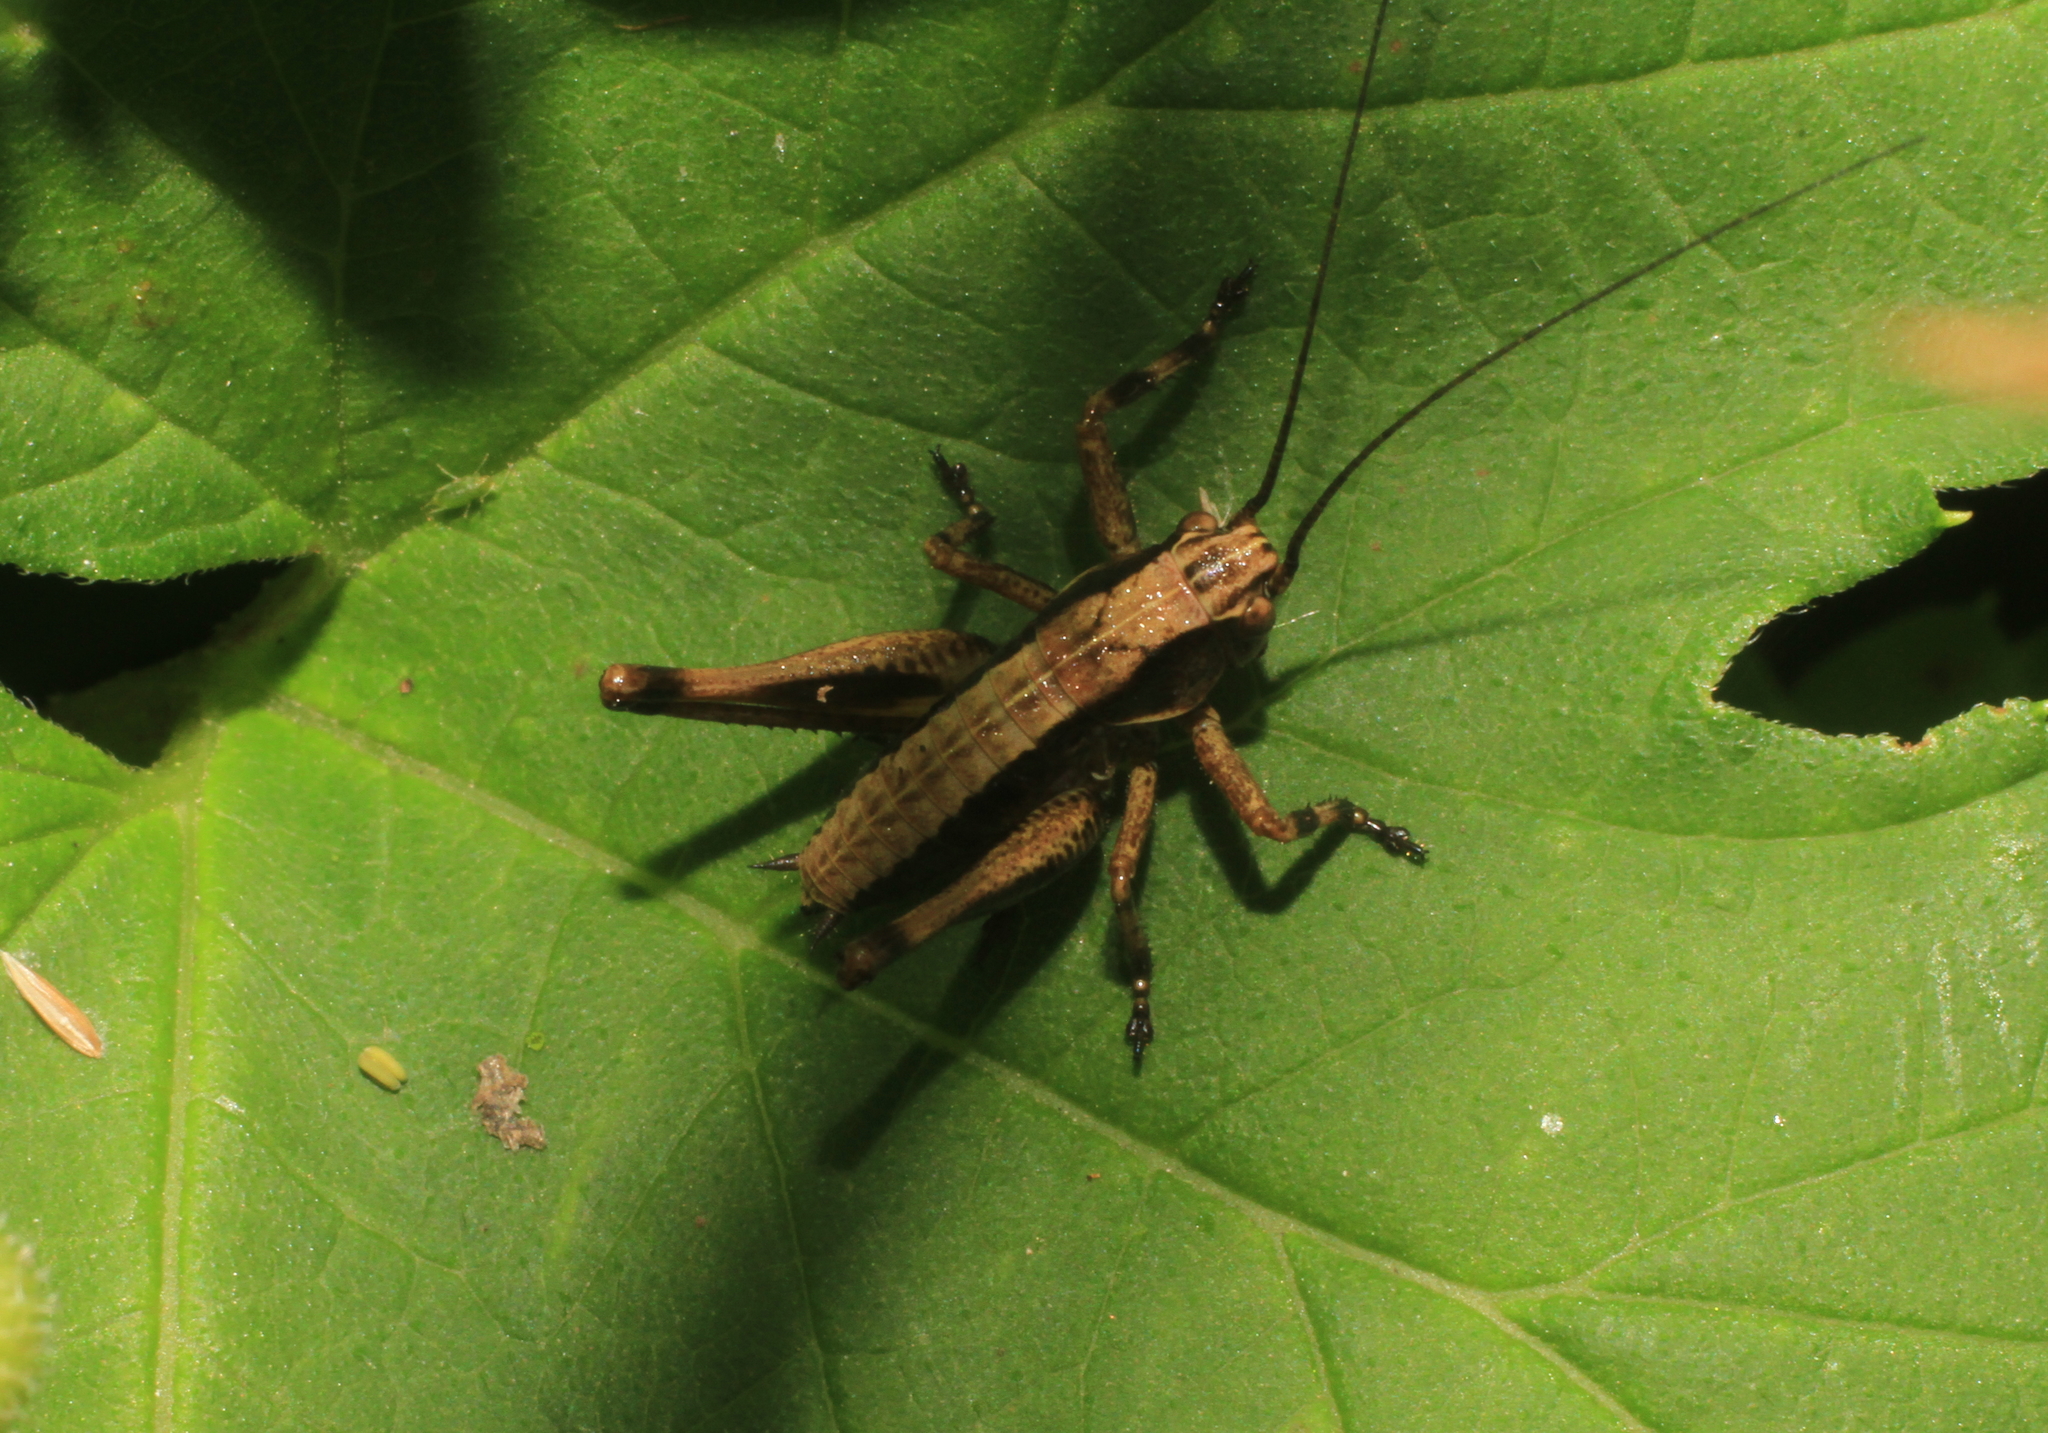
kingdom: Animalia
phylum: Arthropoda
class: Insecta
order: Orthoptera
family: Tettigoniidae
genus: Pholidoptera
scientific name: Pholidoptera griseoaptera
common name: Dark bush-cricket
